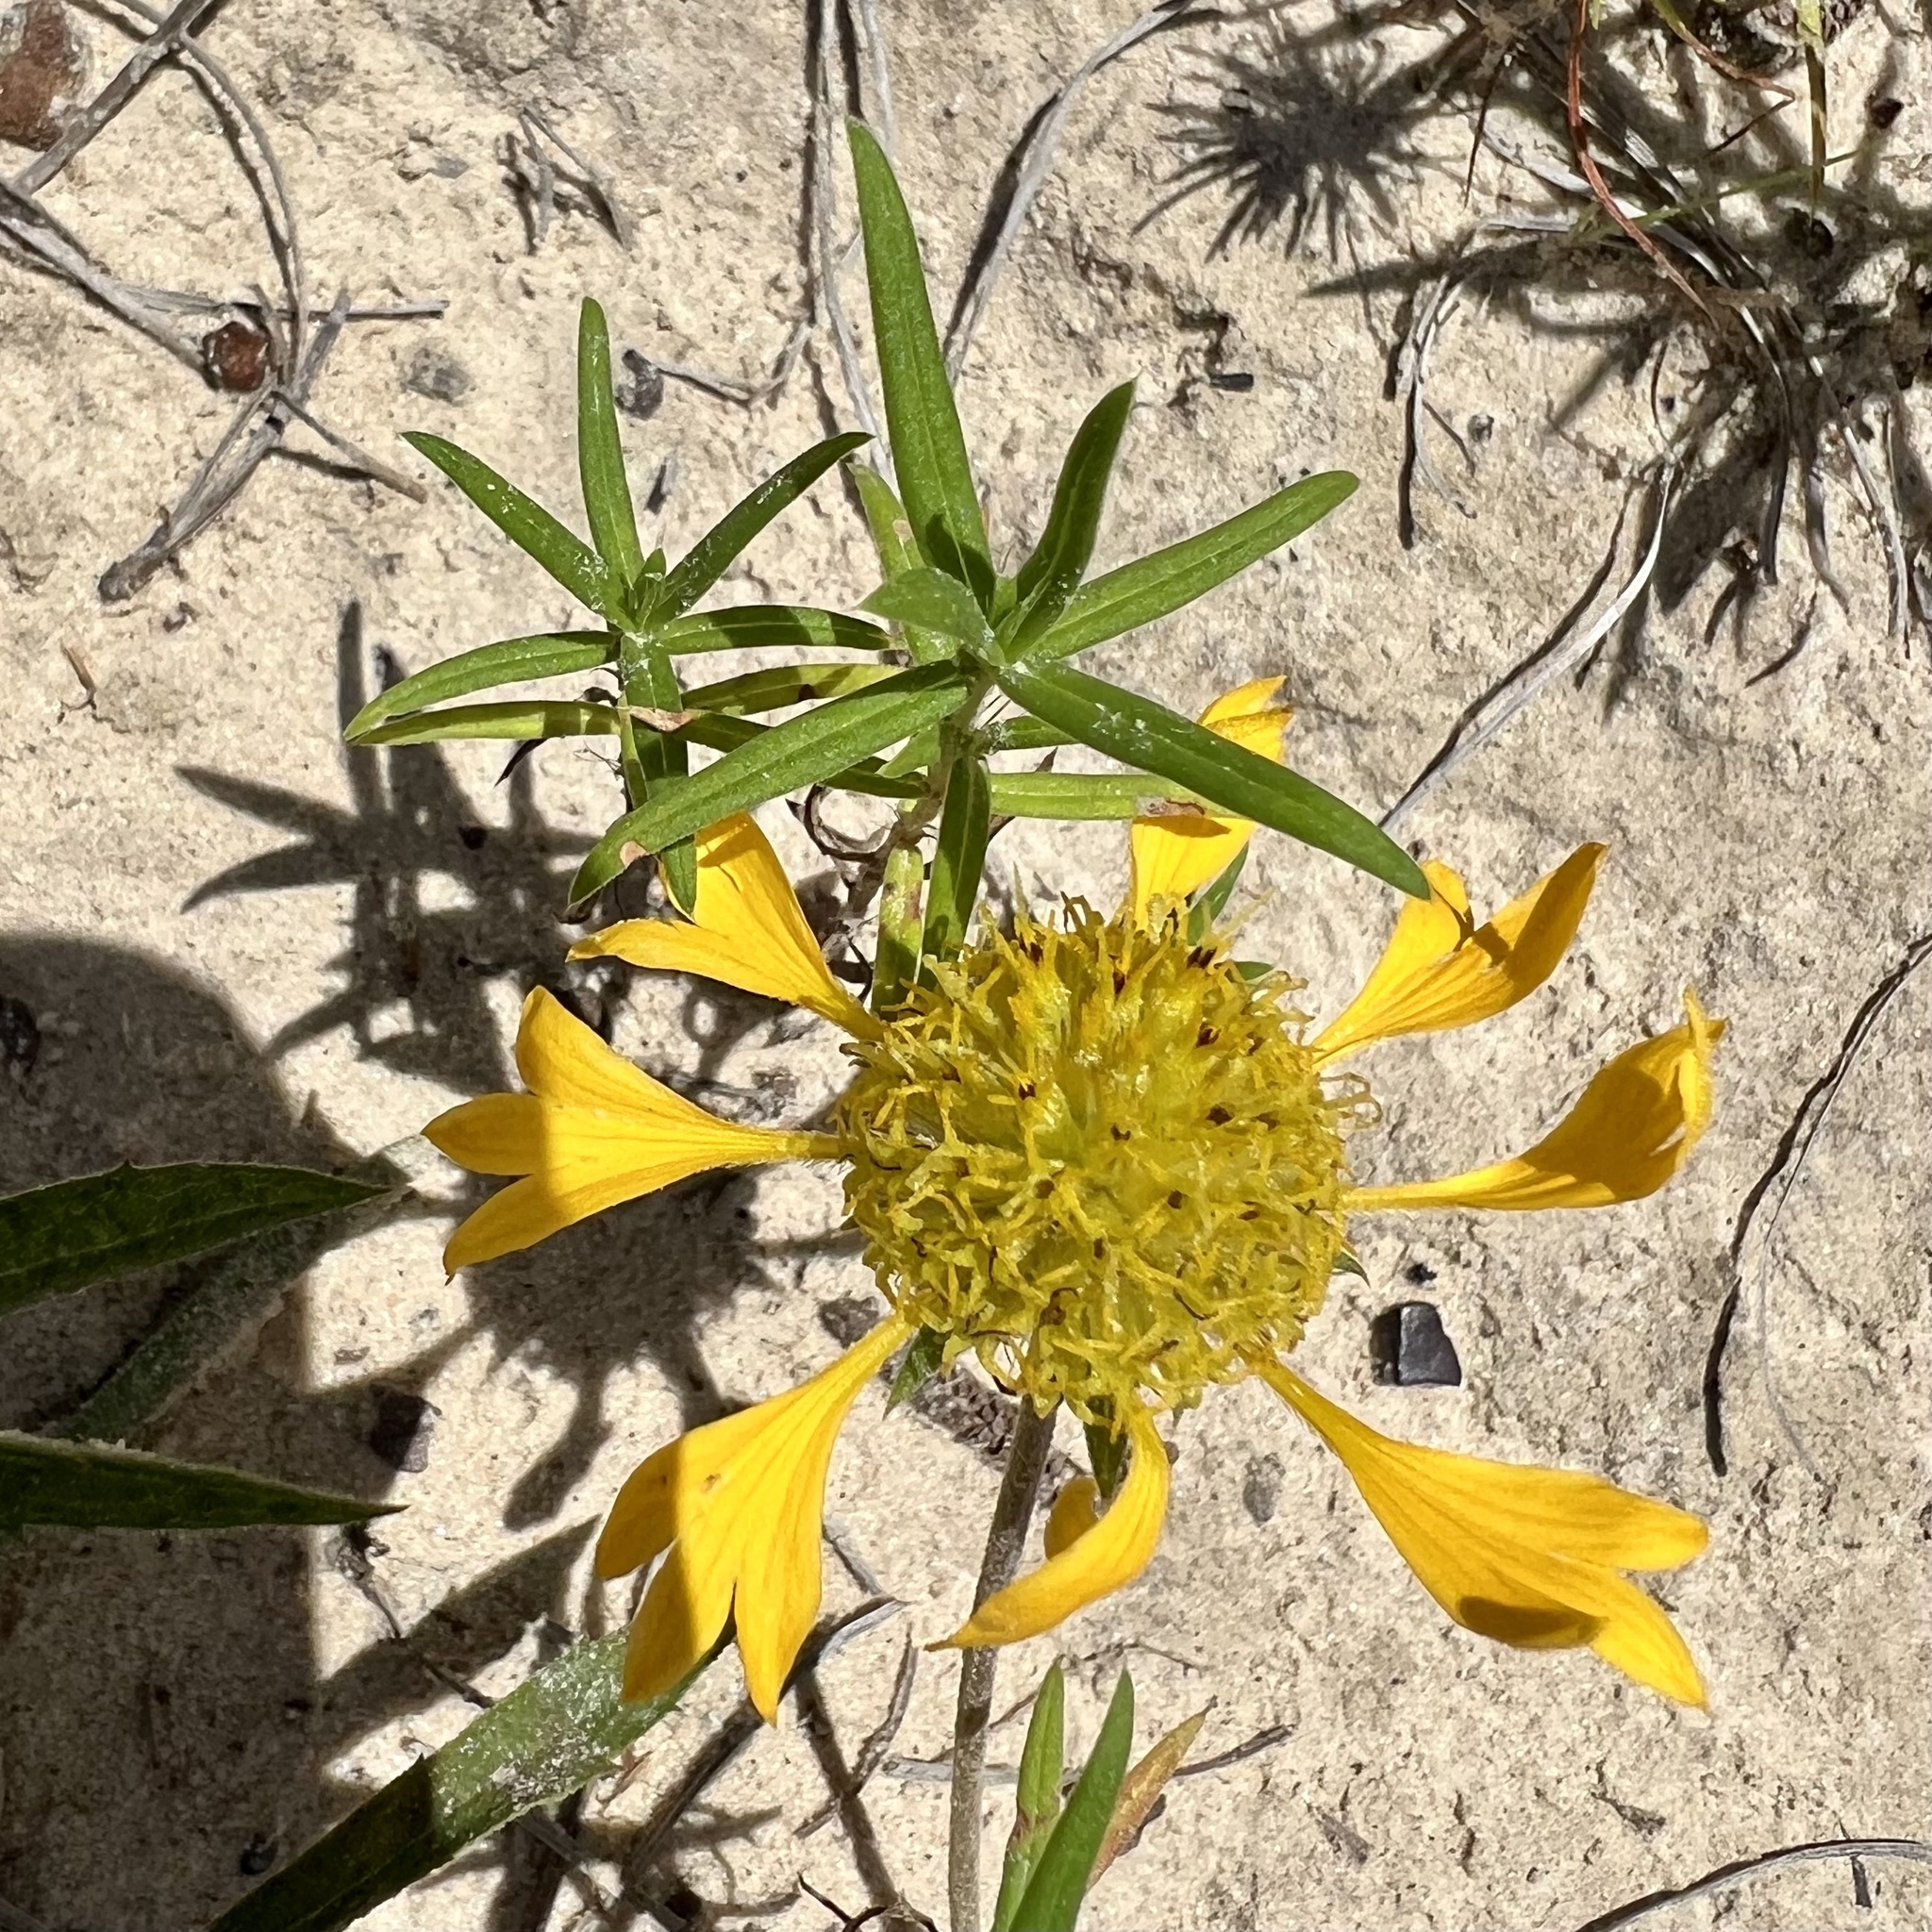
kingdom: Plantae
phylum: Tracheophyta
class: Magnoliopsida
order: Asterales
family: Asteraceae
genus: Gaillardia
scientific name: Gaillardia aestivalis
